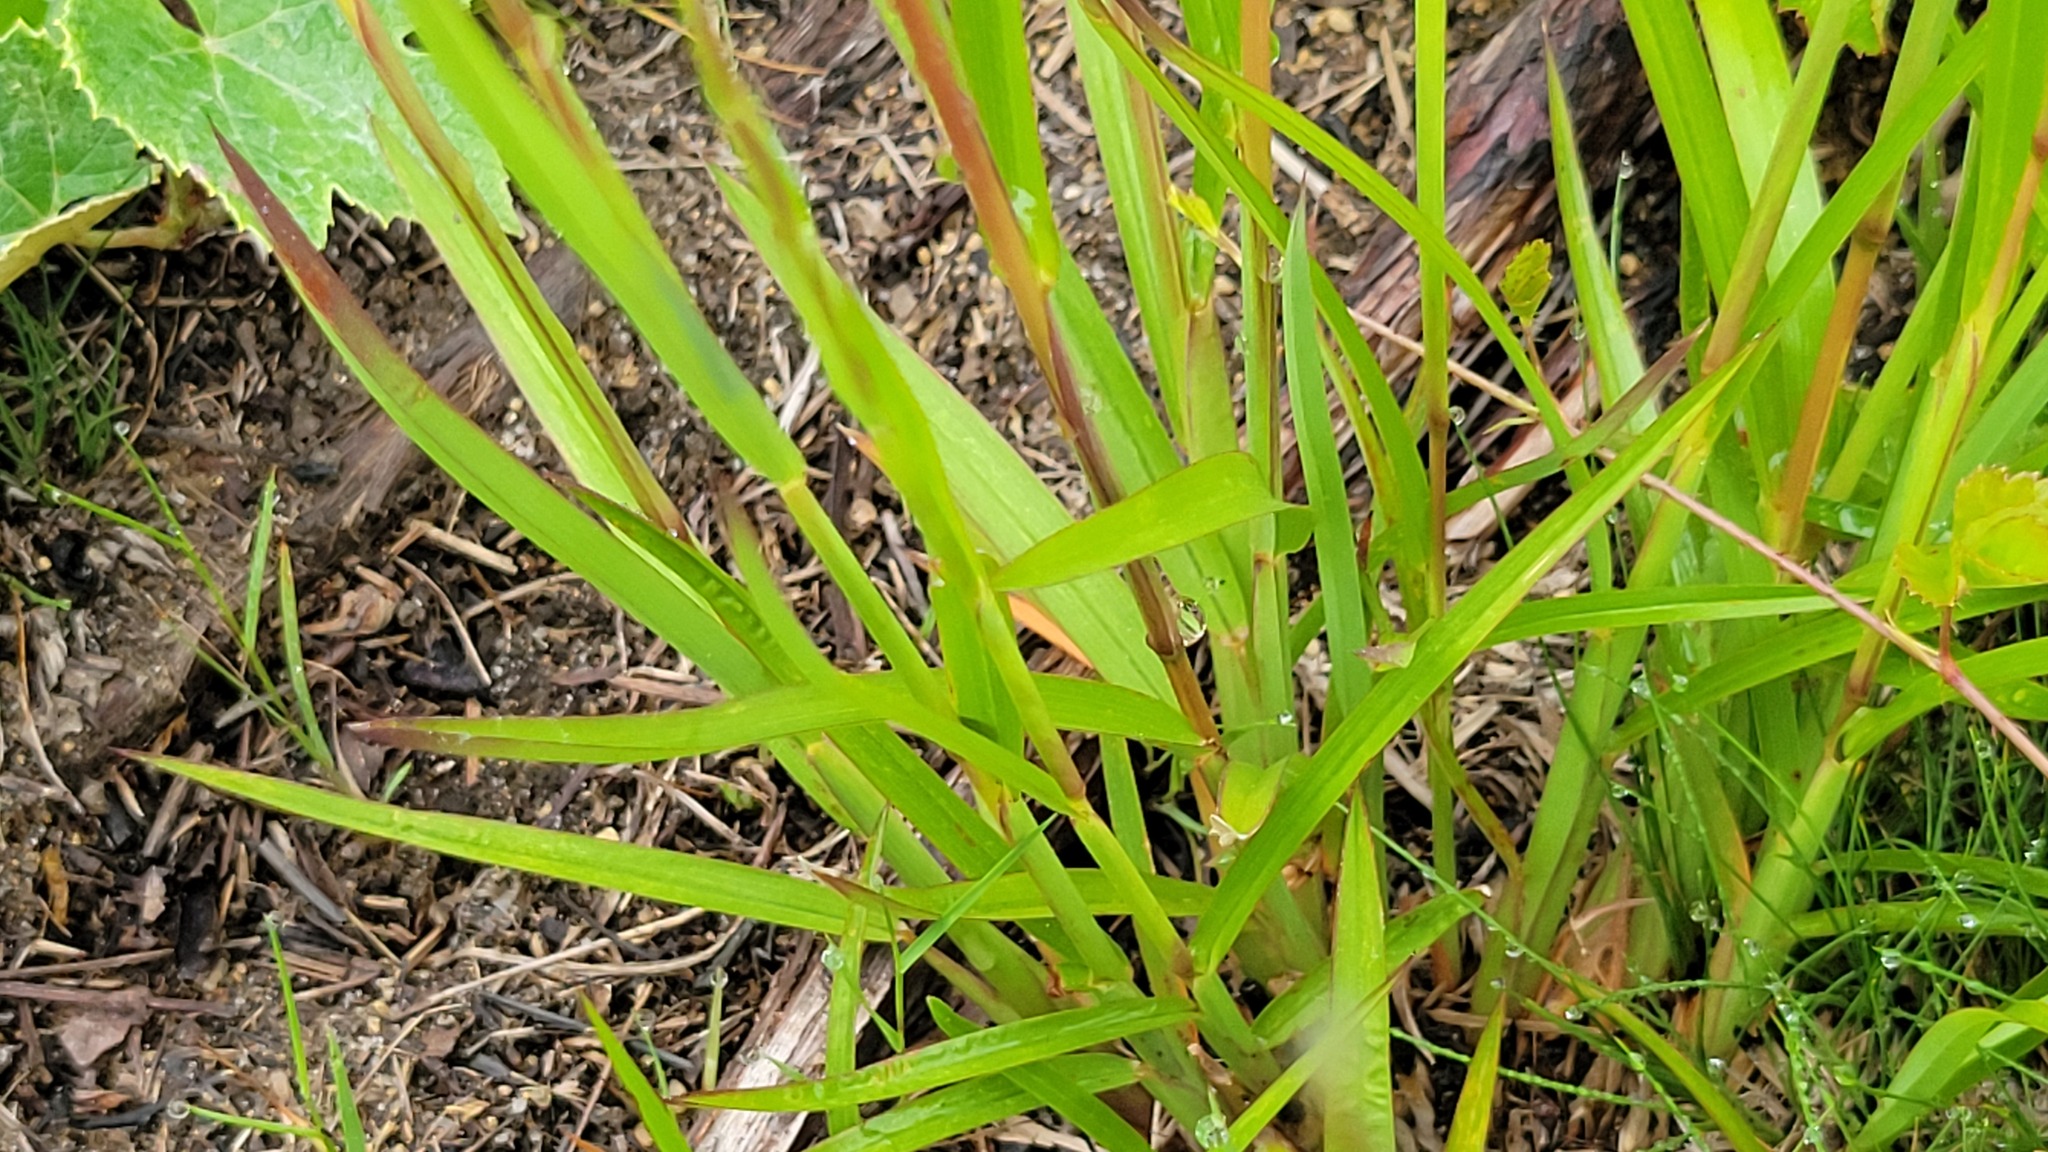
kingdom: Plantae
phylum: Tracheophyta
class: Liliopsida
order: Poales
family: Poaceae
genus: Schizachyrium
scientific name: Schizachyrium scoparium
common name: Little bluestem
